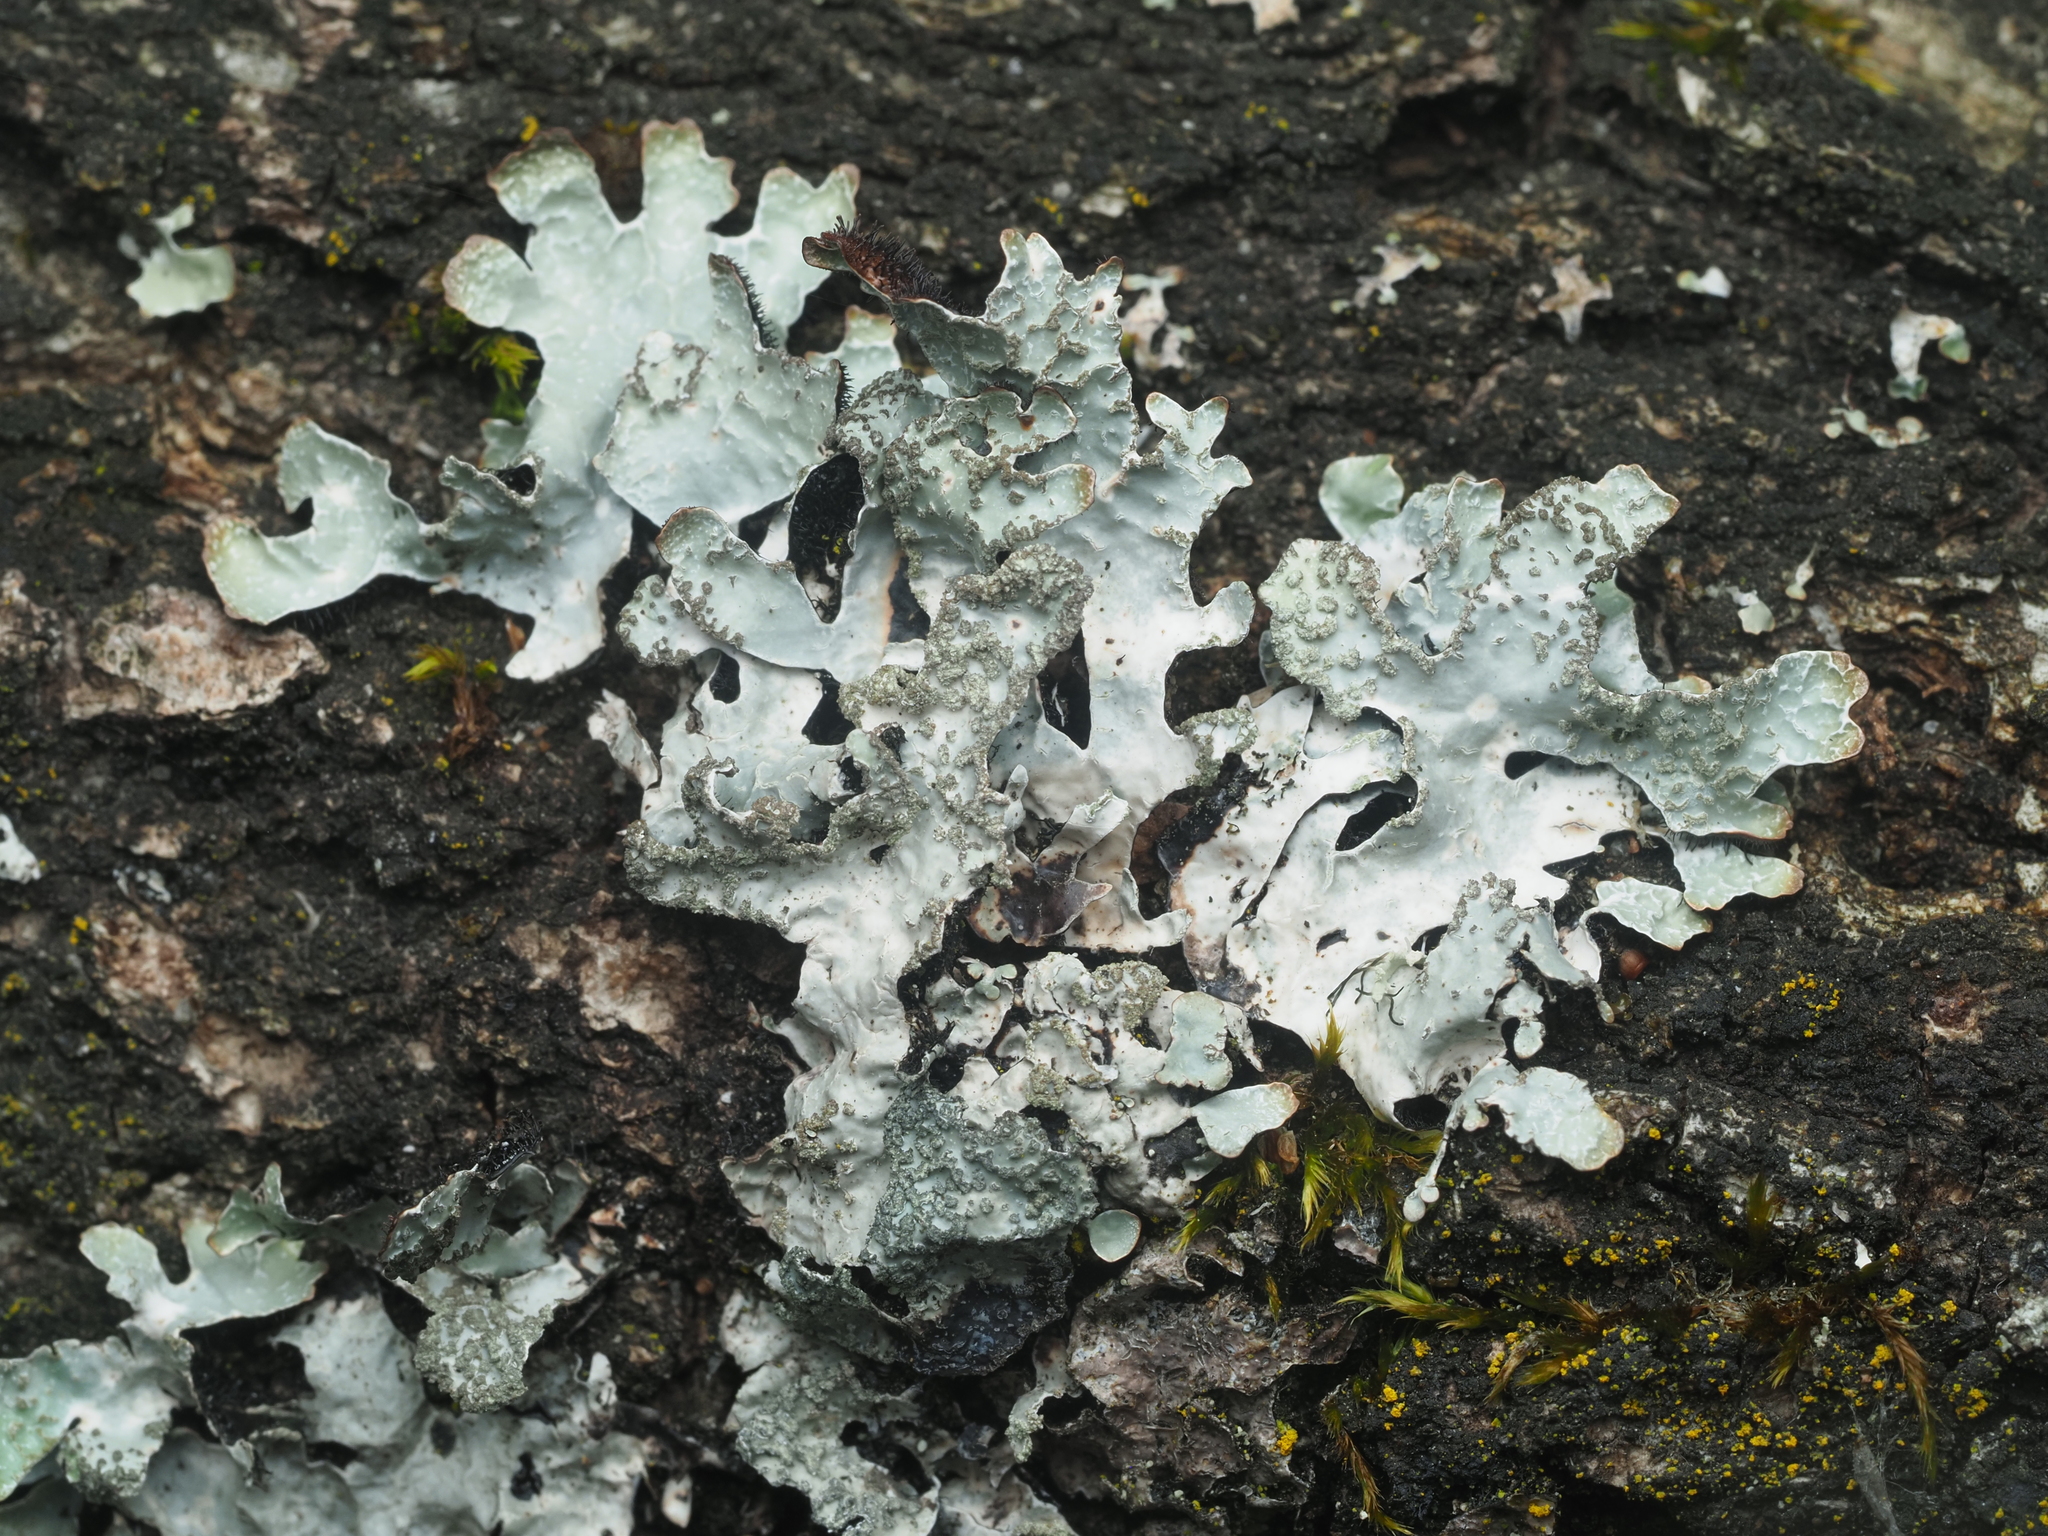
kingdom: Fungi
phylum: Ascomycota
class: Lecanoromycetes
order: Lecanorales
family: Parmeliaceae
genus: Parmelia
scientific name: Parmelia sulcata
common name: Netted shield lichen
